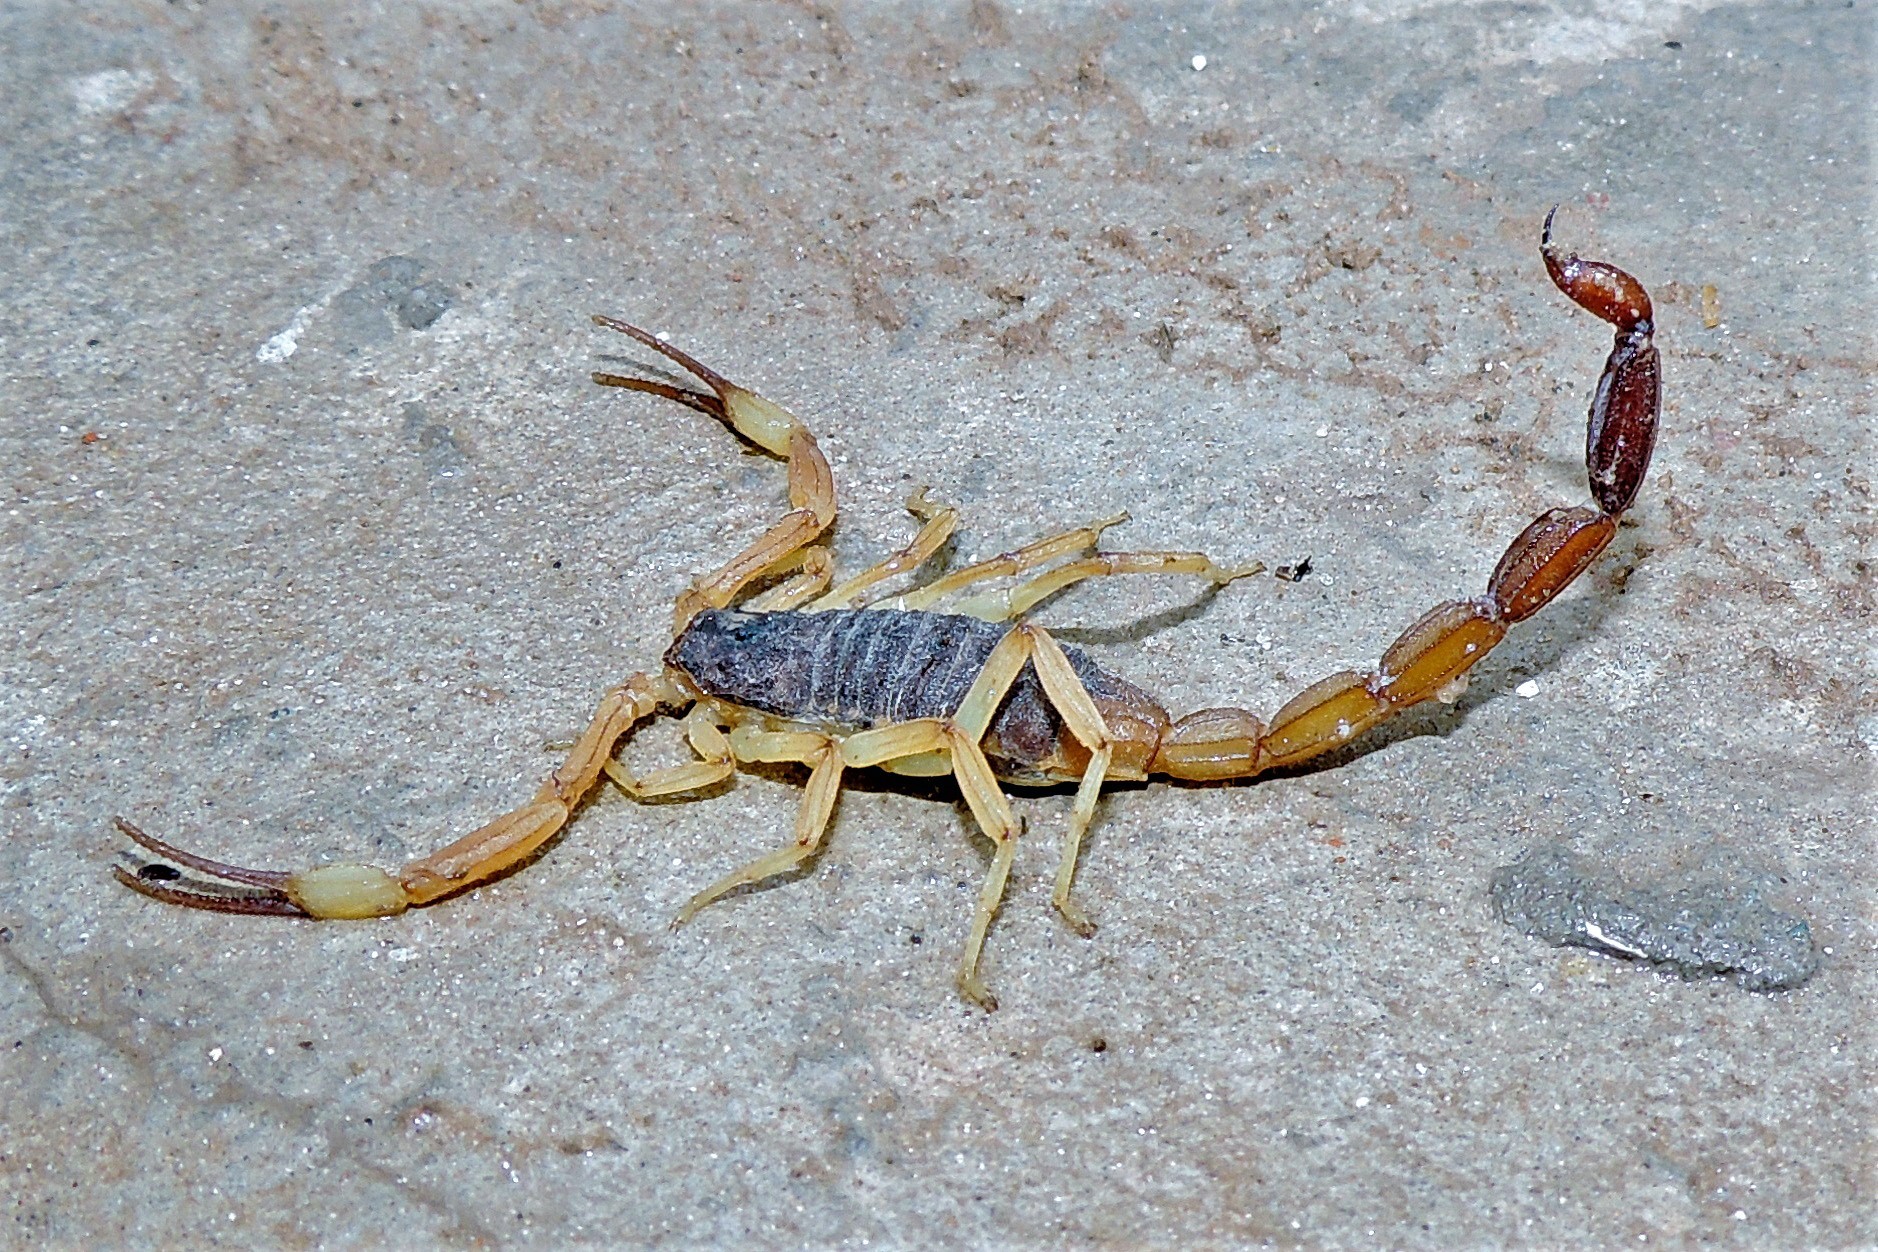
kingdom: Animalia
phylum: Arthropoda
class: Arachnida
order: Scorpiones
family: Buthidae
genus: Tityus
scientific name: Tityus confluens
